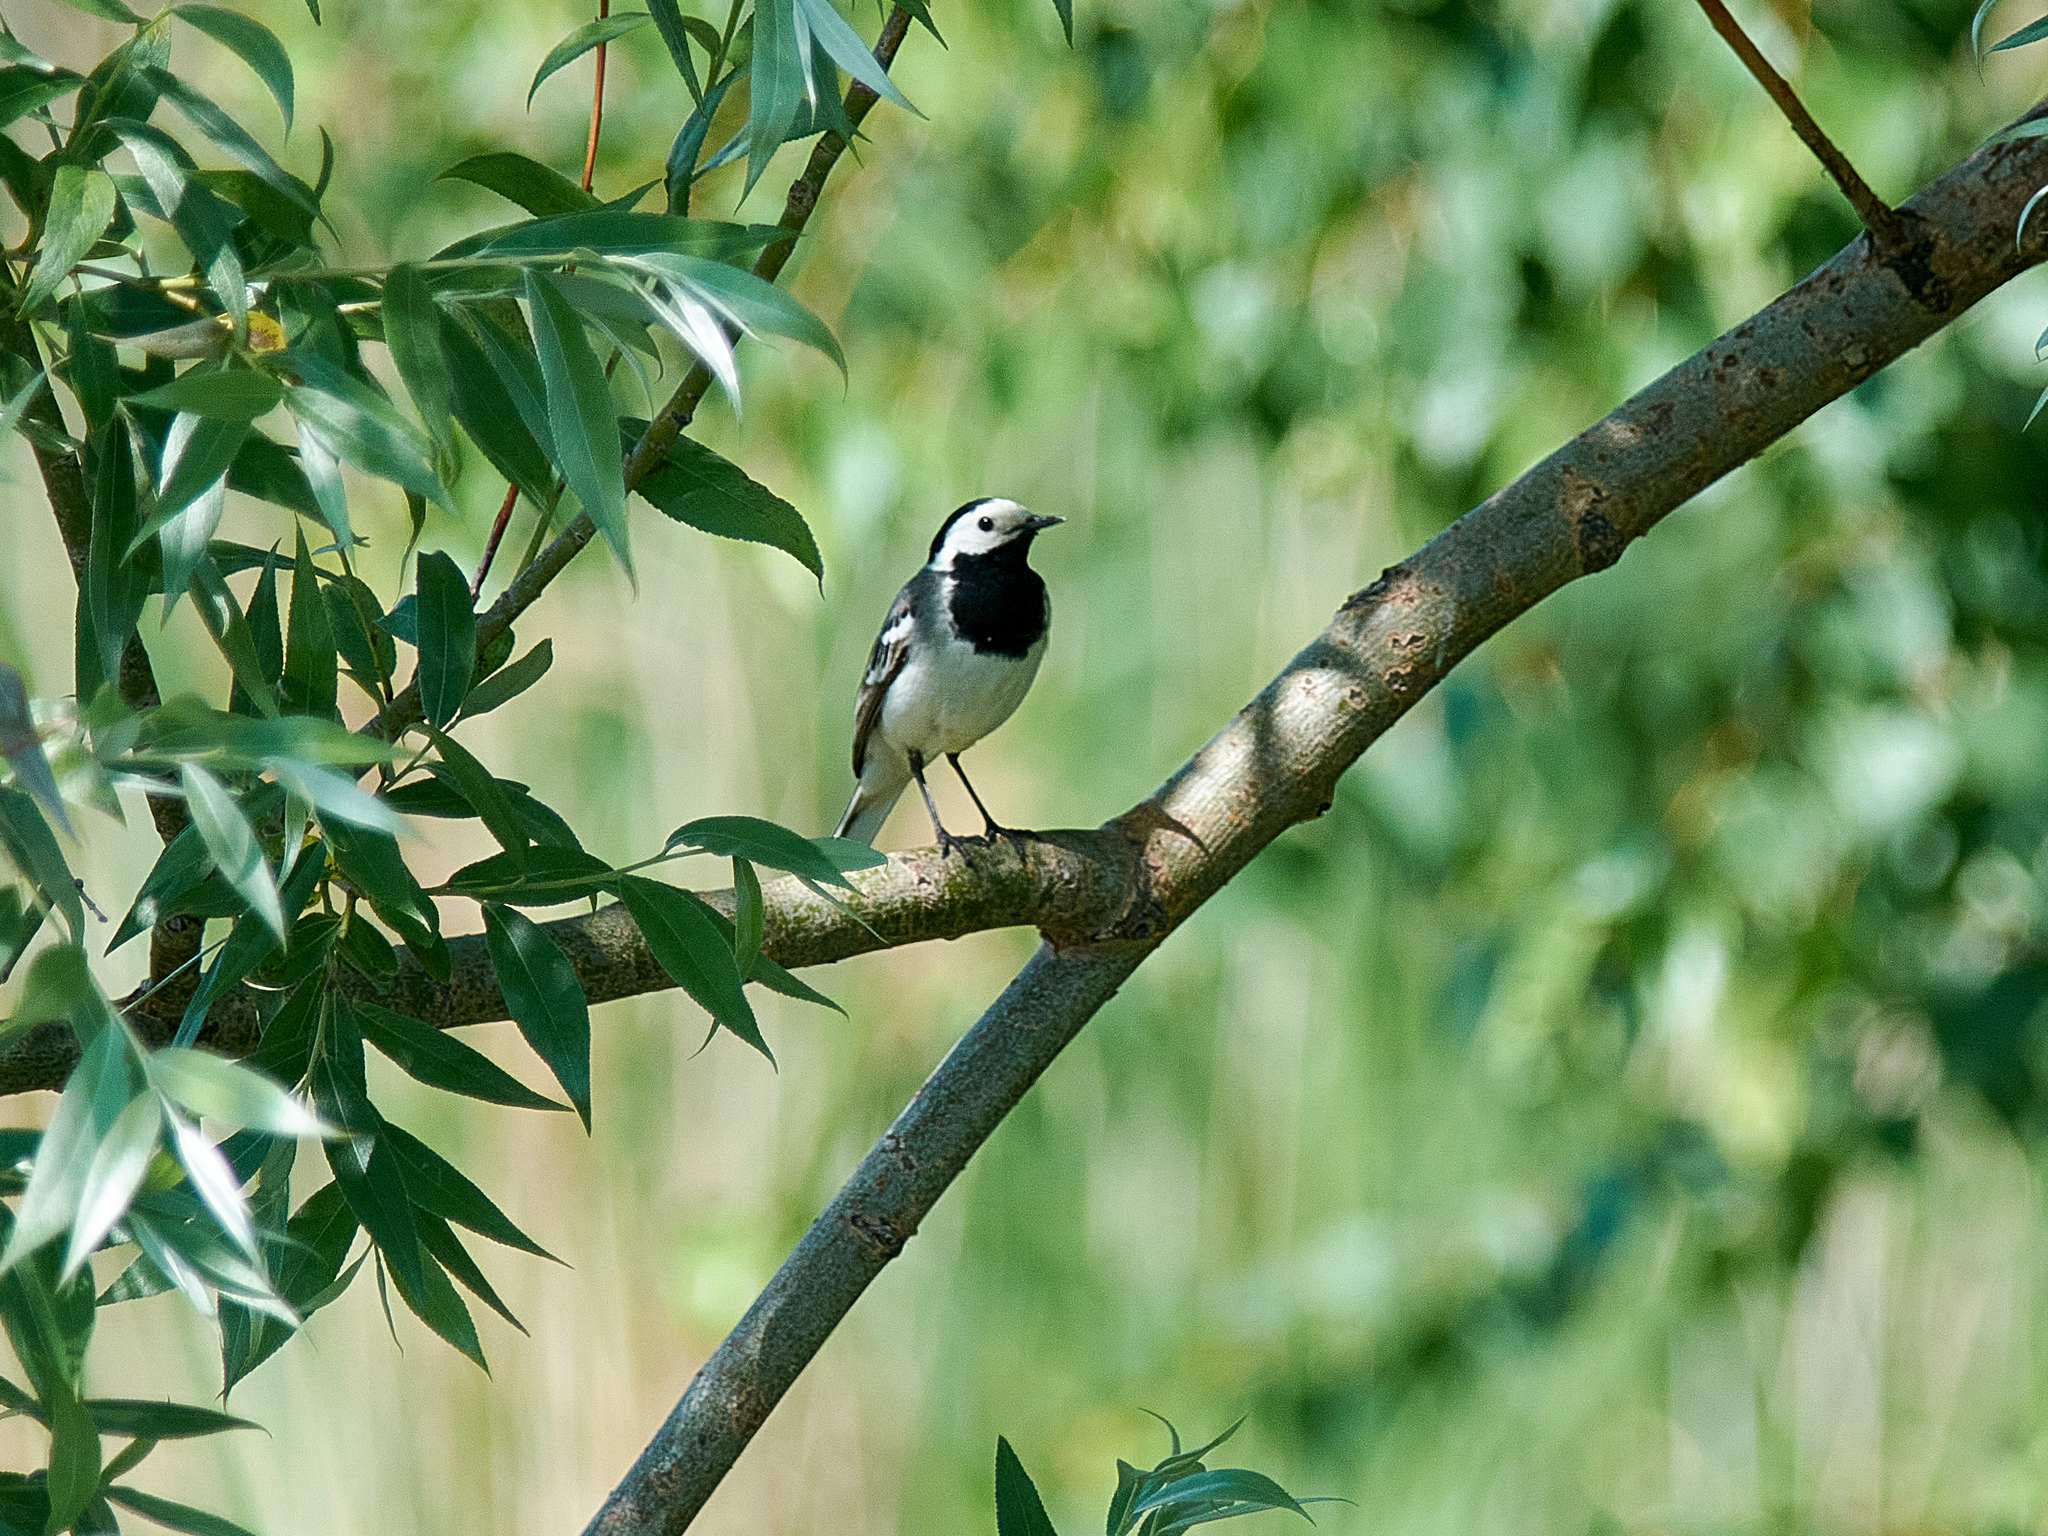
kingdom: Animalia
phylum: Chordata
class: Aves
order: Passeriformes
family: Motacillidae
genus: Motacilla
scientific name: Motacilla alba
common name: White wagtail
